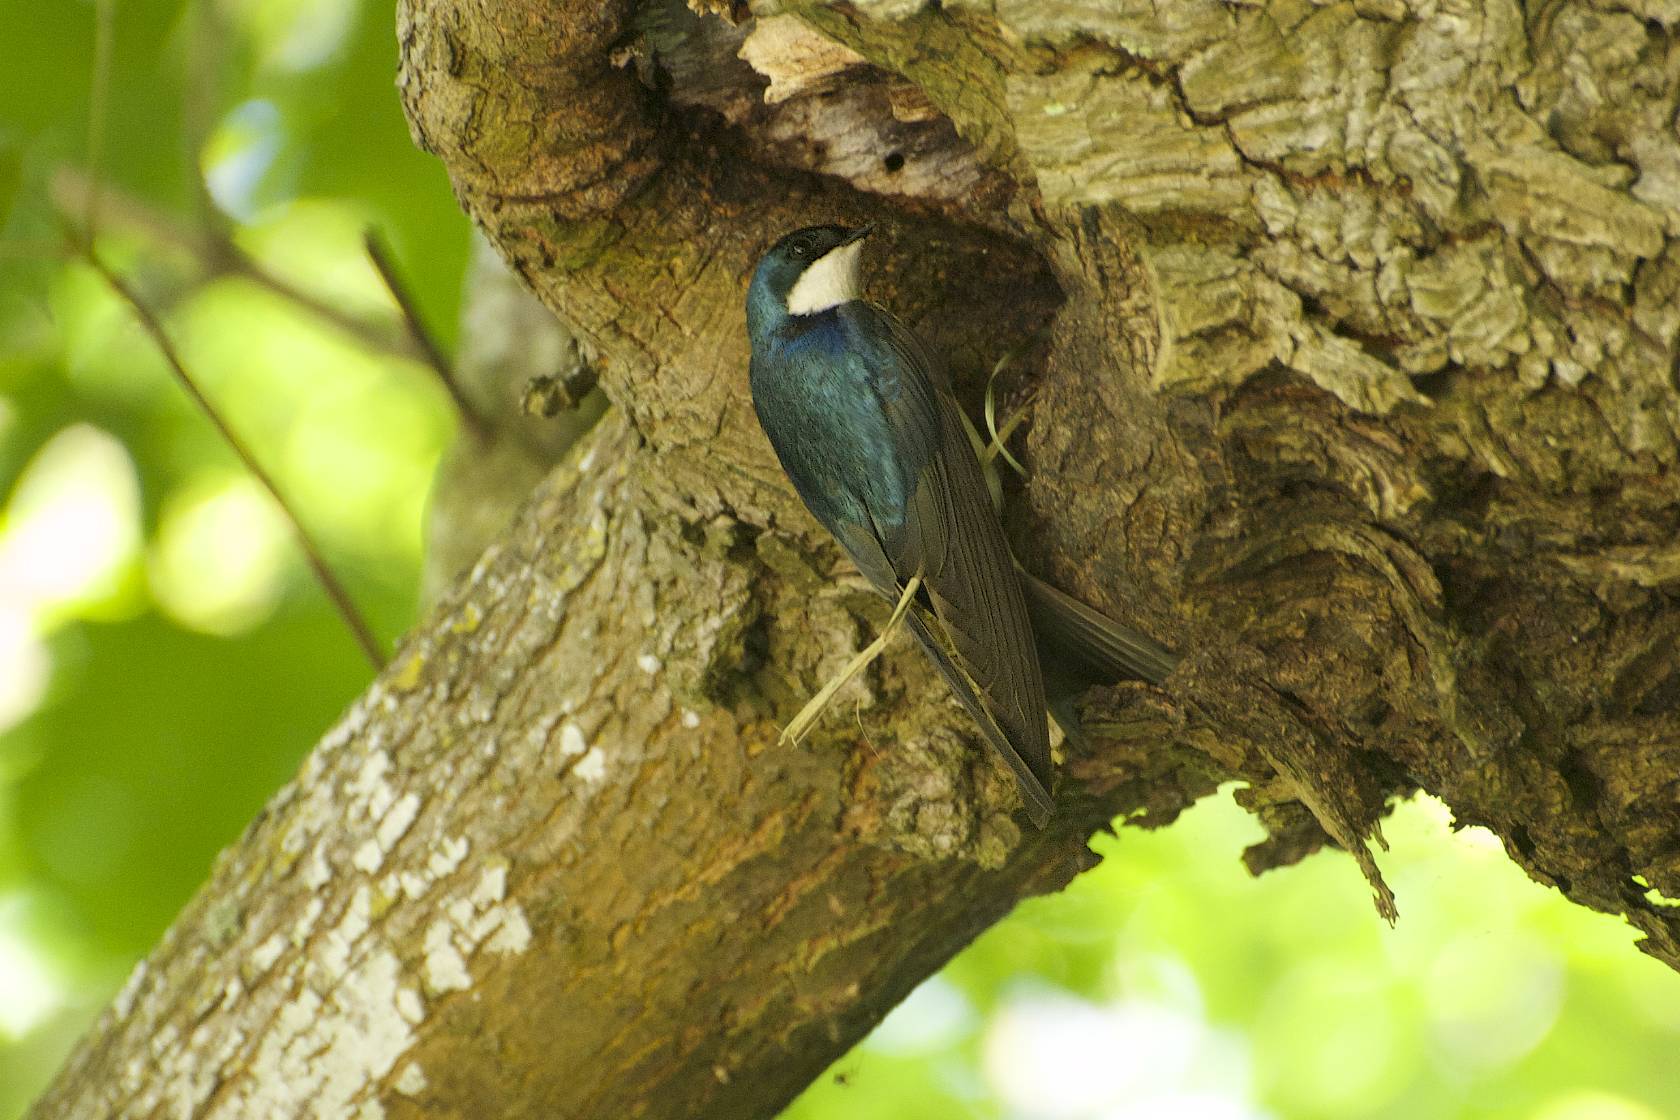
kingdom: Animalia
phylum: Chordata
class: Aves
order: Passeriformes
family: Hirundinidae
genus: Tachycineta
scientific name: Tachycineta bicolor
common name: Tree swallow
